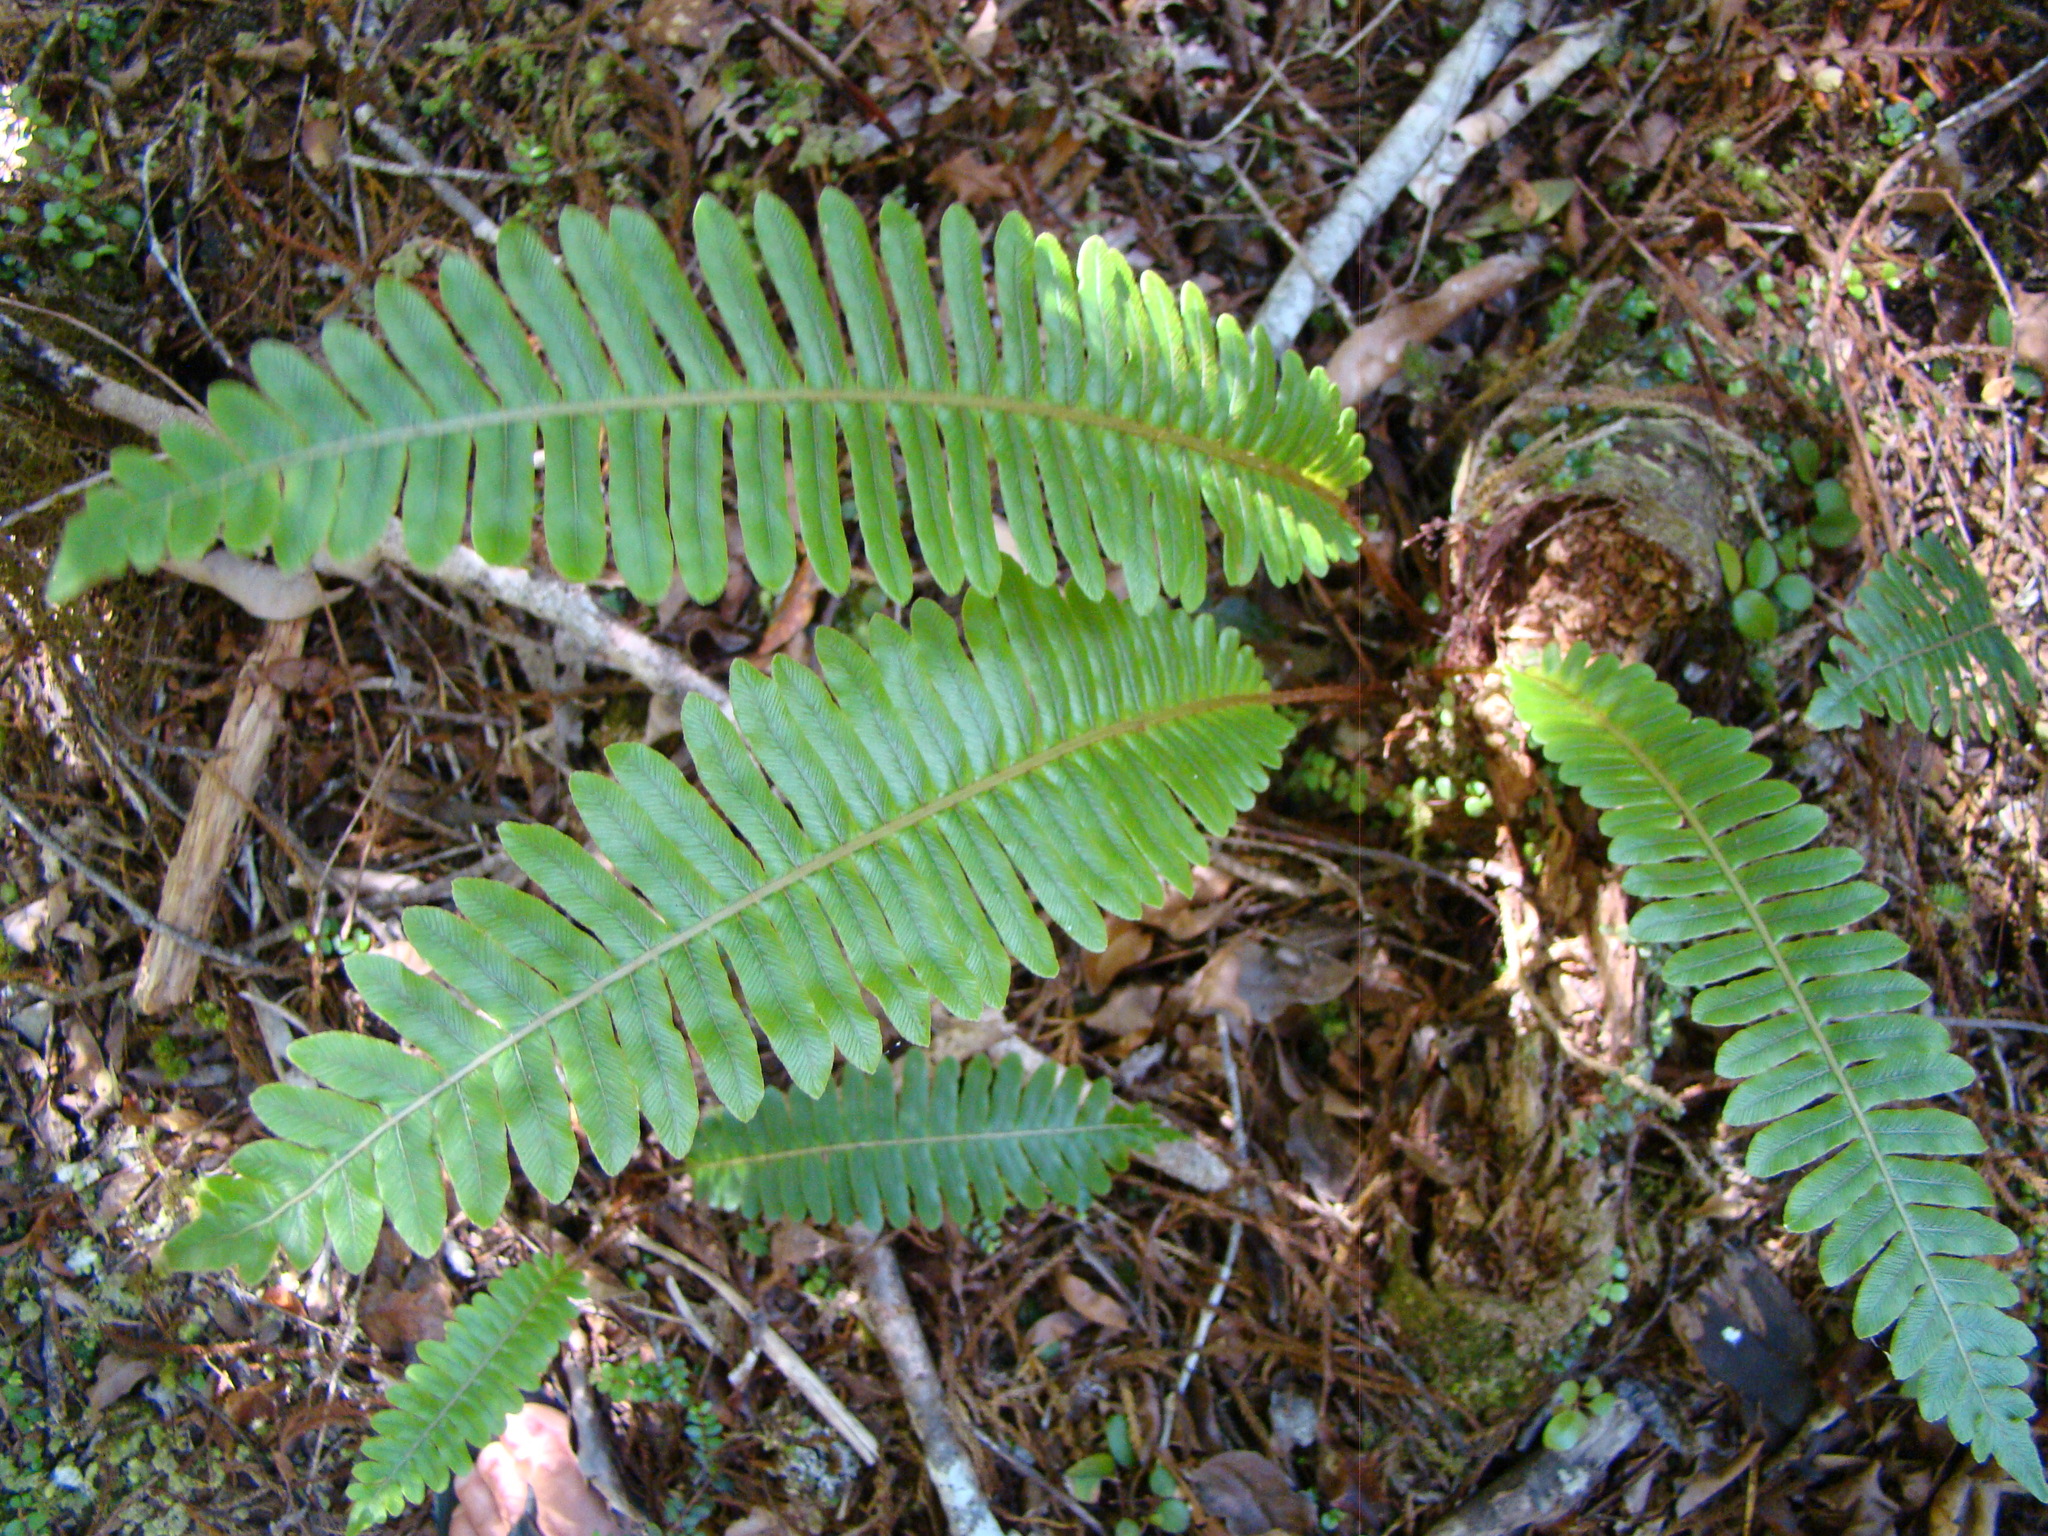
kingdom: Plantae
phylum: Tracheophyta
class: Polypodiopsida
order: Polypodiales
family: Blechnaceae
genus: Lomaria
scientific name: Lomaria discolor
